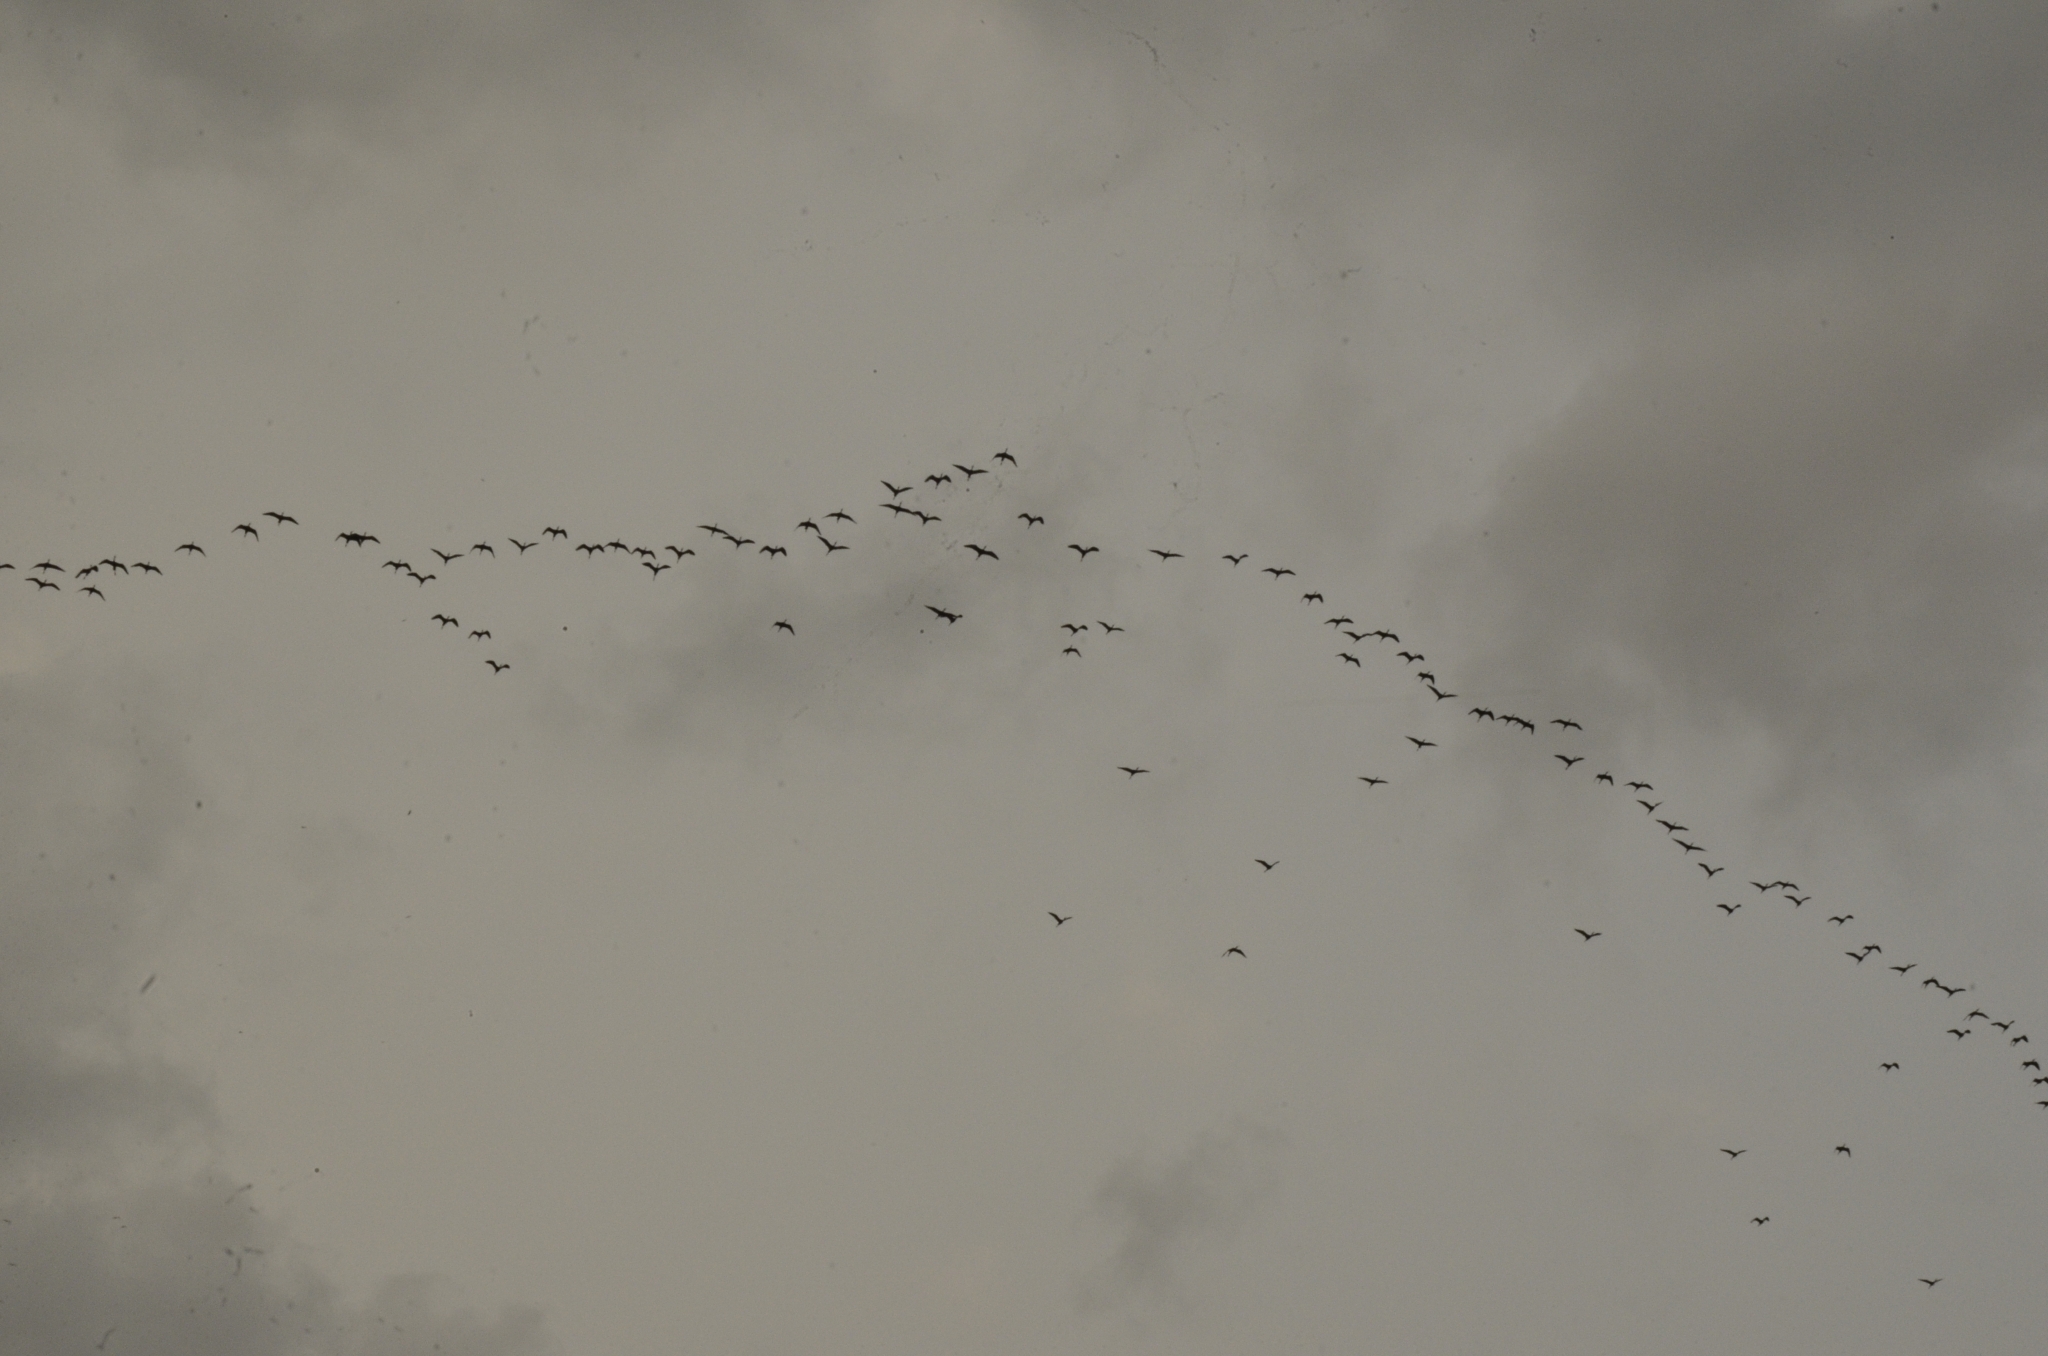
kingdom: Animalia
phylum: Chordata
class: Aves
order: Pelecaniformes
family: Threskiornithidae
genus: Plegadis
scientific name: Plegadis falcinellus
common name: Glossy ibis
